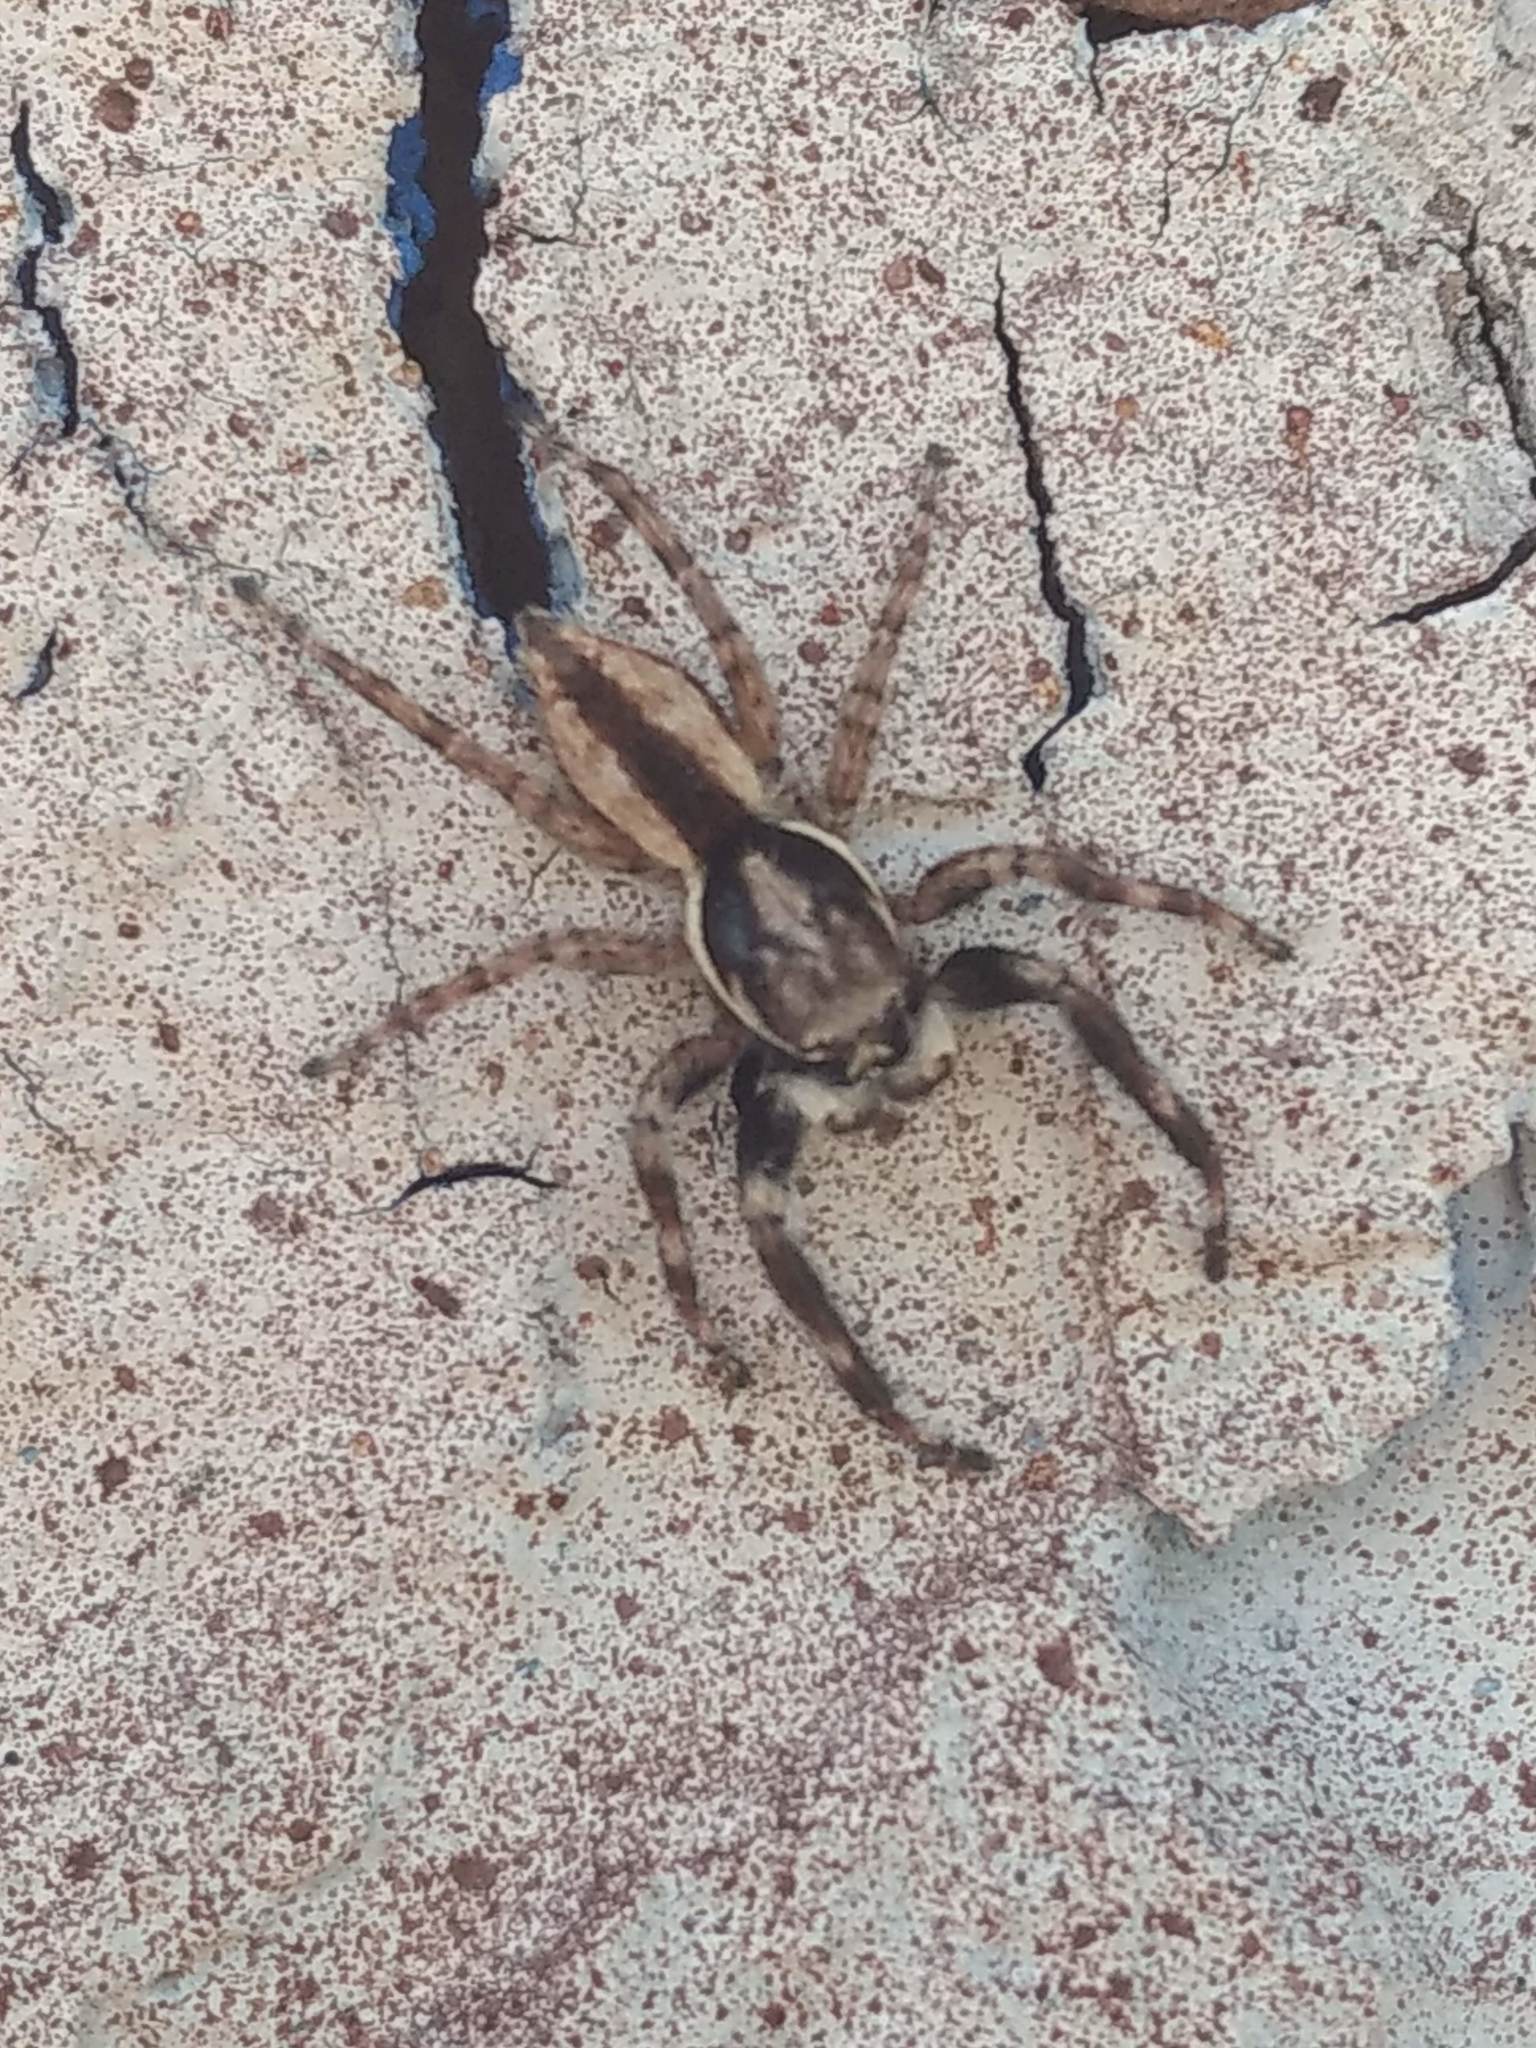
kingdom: Animalia
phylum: Arthropoda
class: Arachnida
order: Araneae
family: Salticidae
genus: Menemerus
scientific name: Menemerus bivittatus
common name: Gray wall jumper
